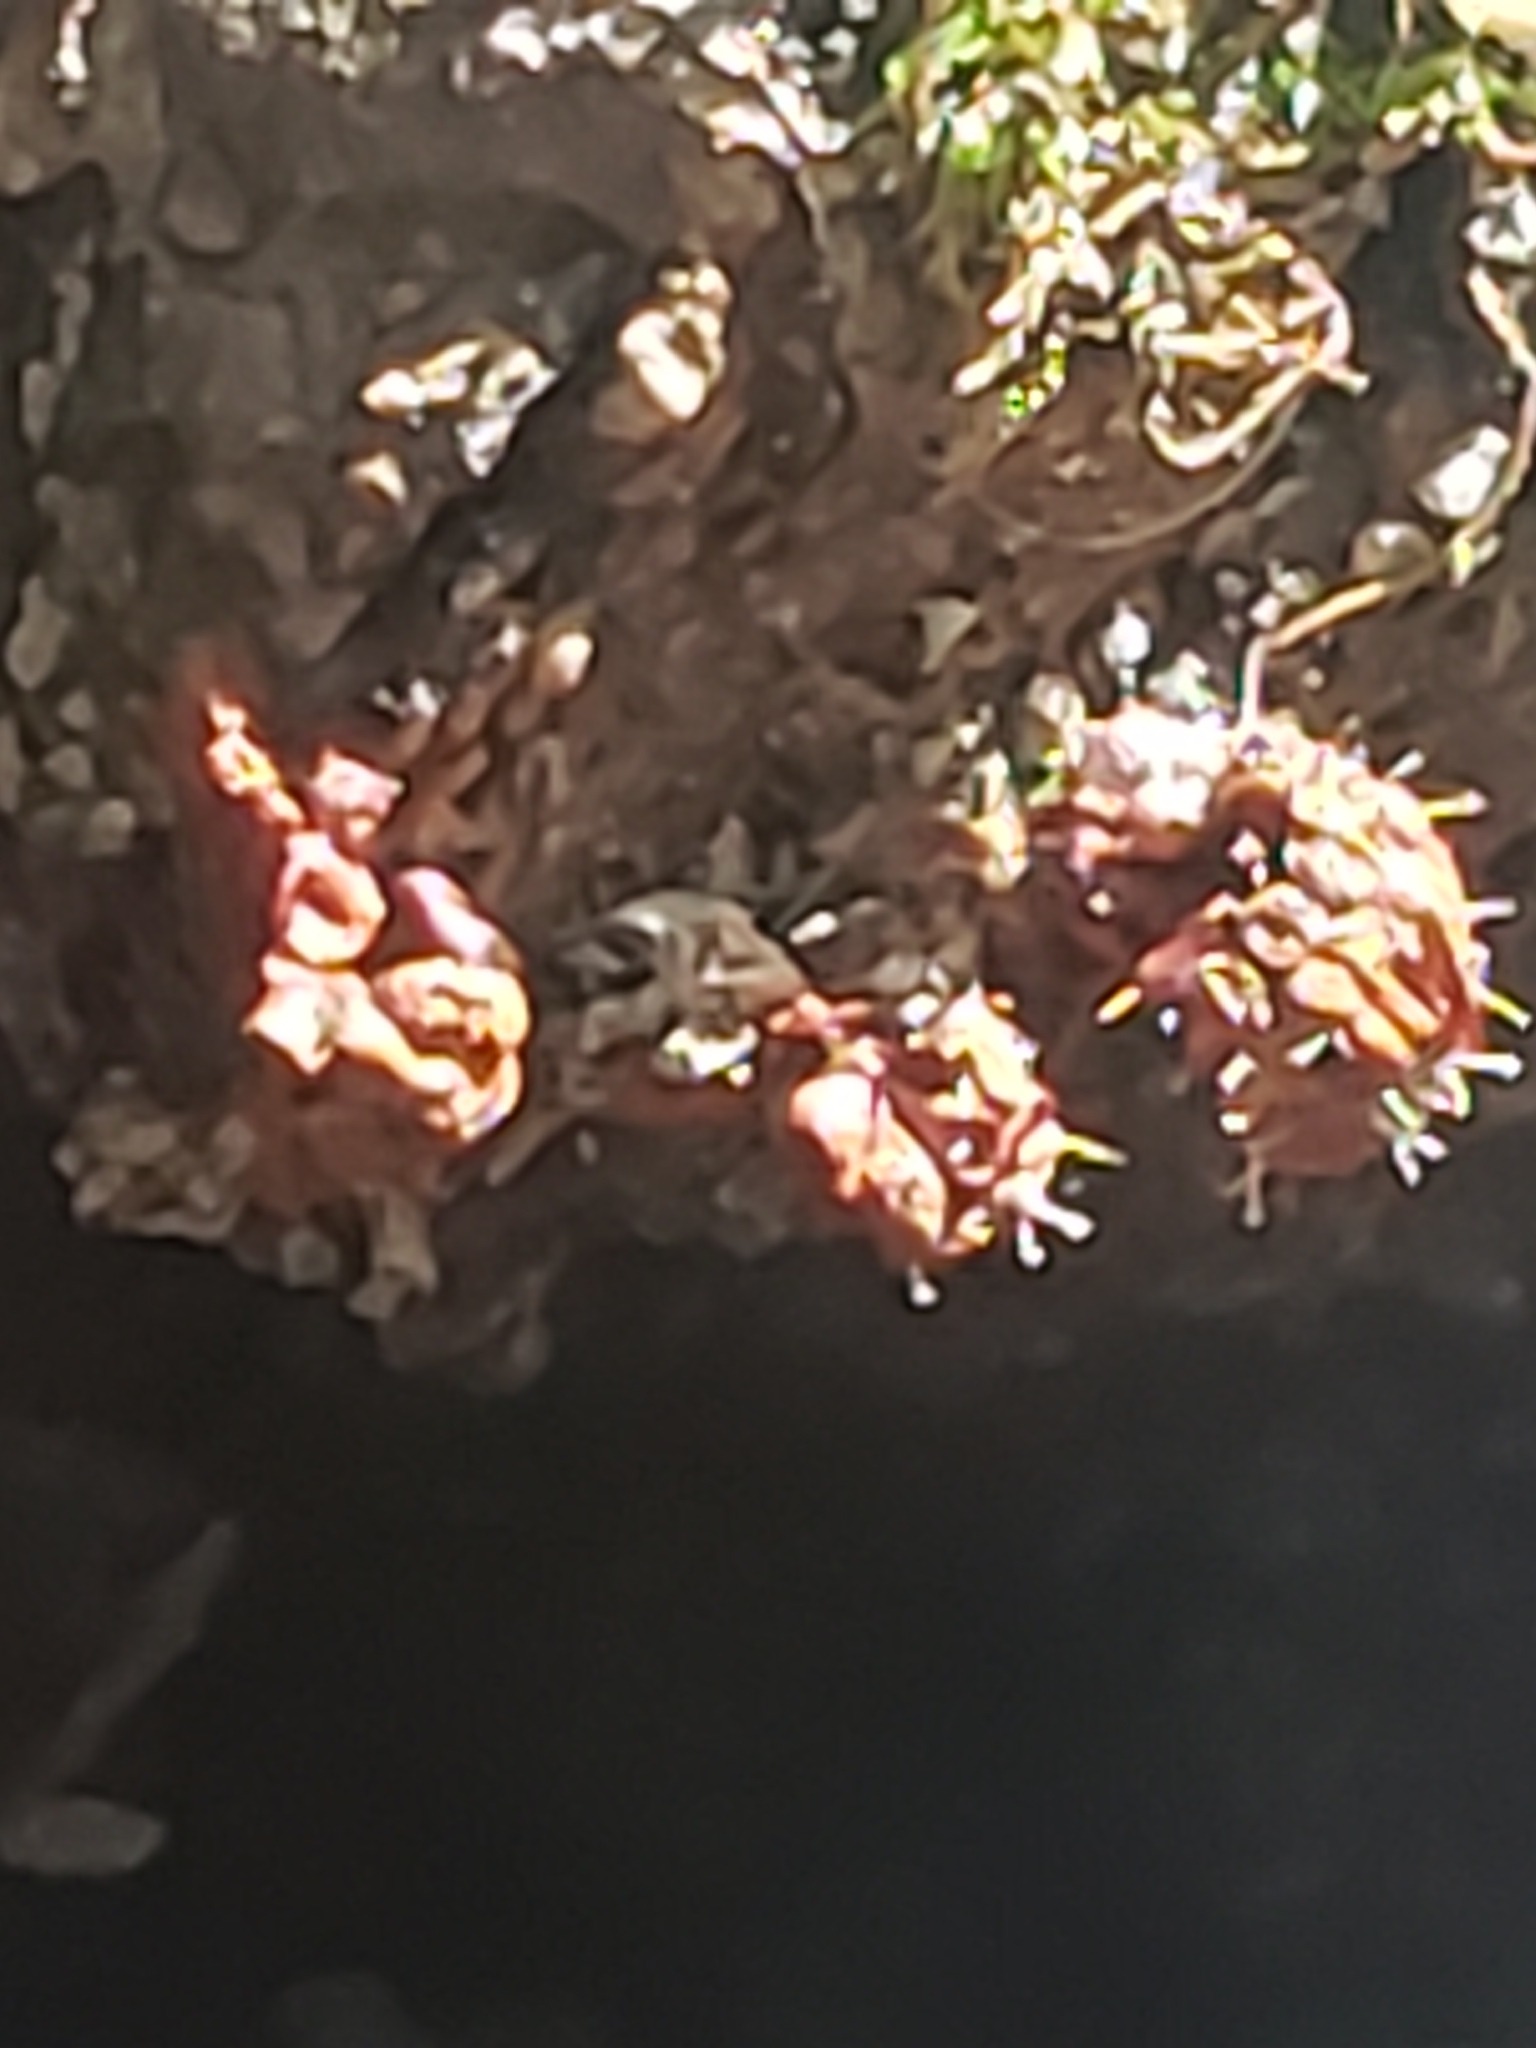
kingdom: Protozoa
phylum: Mycetozoa
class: Myxomycetes
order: Trichiales
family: Trichiaceae
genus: Metatrichia
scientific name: Metatrichia vesparia
